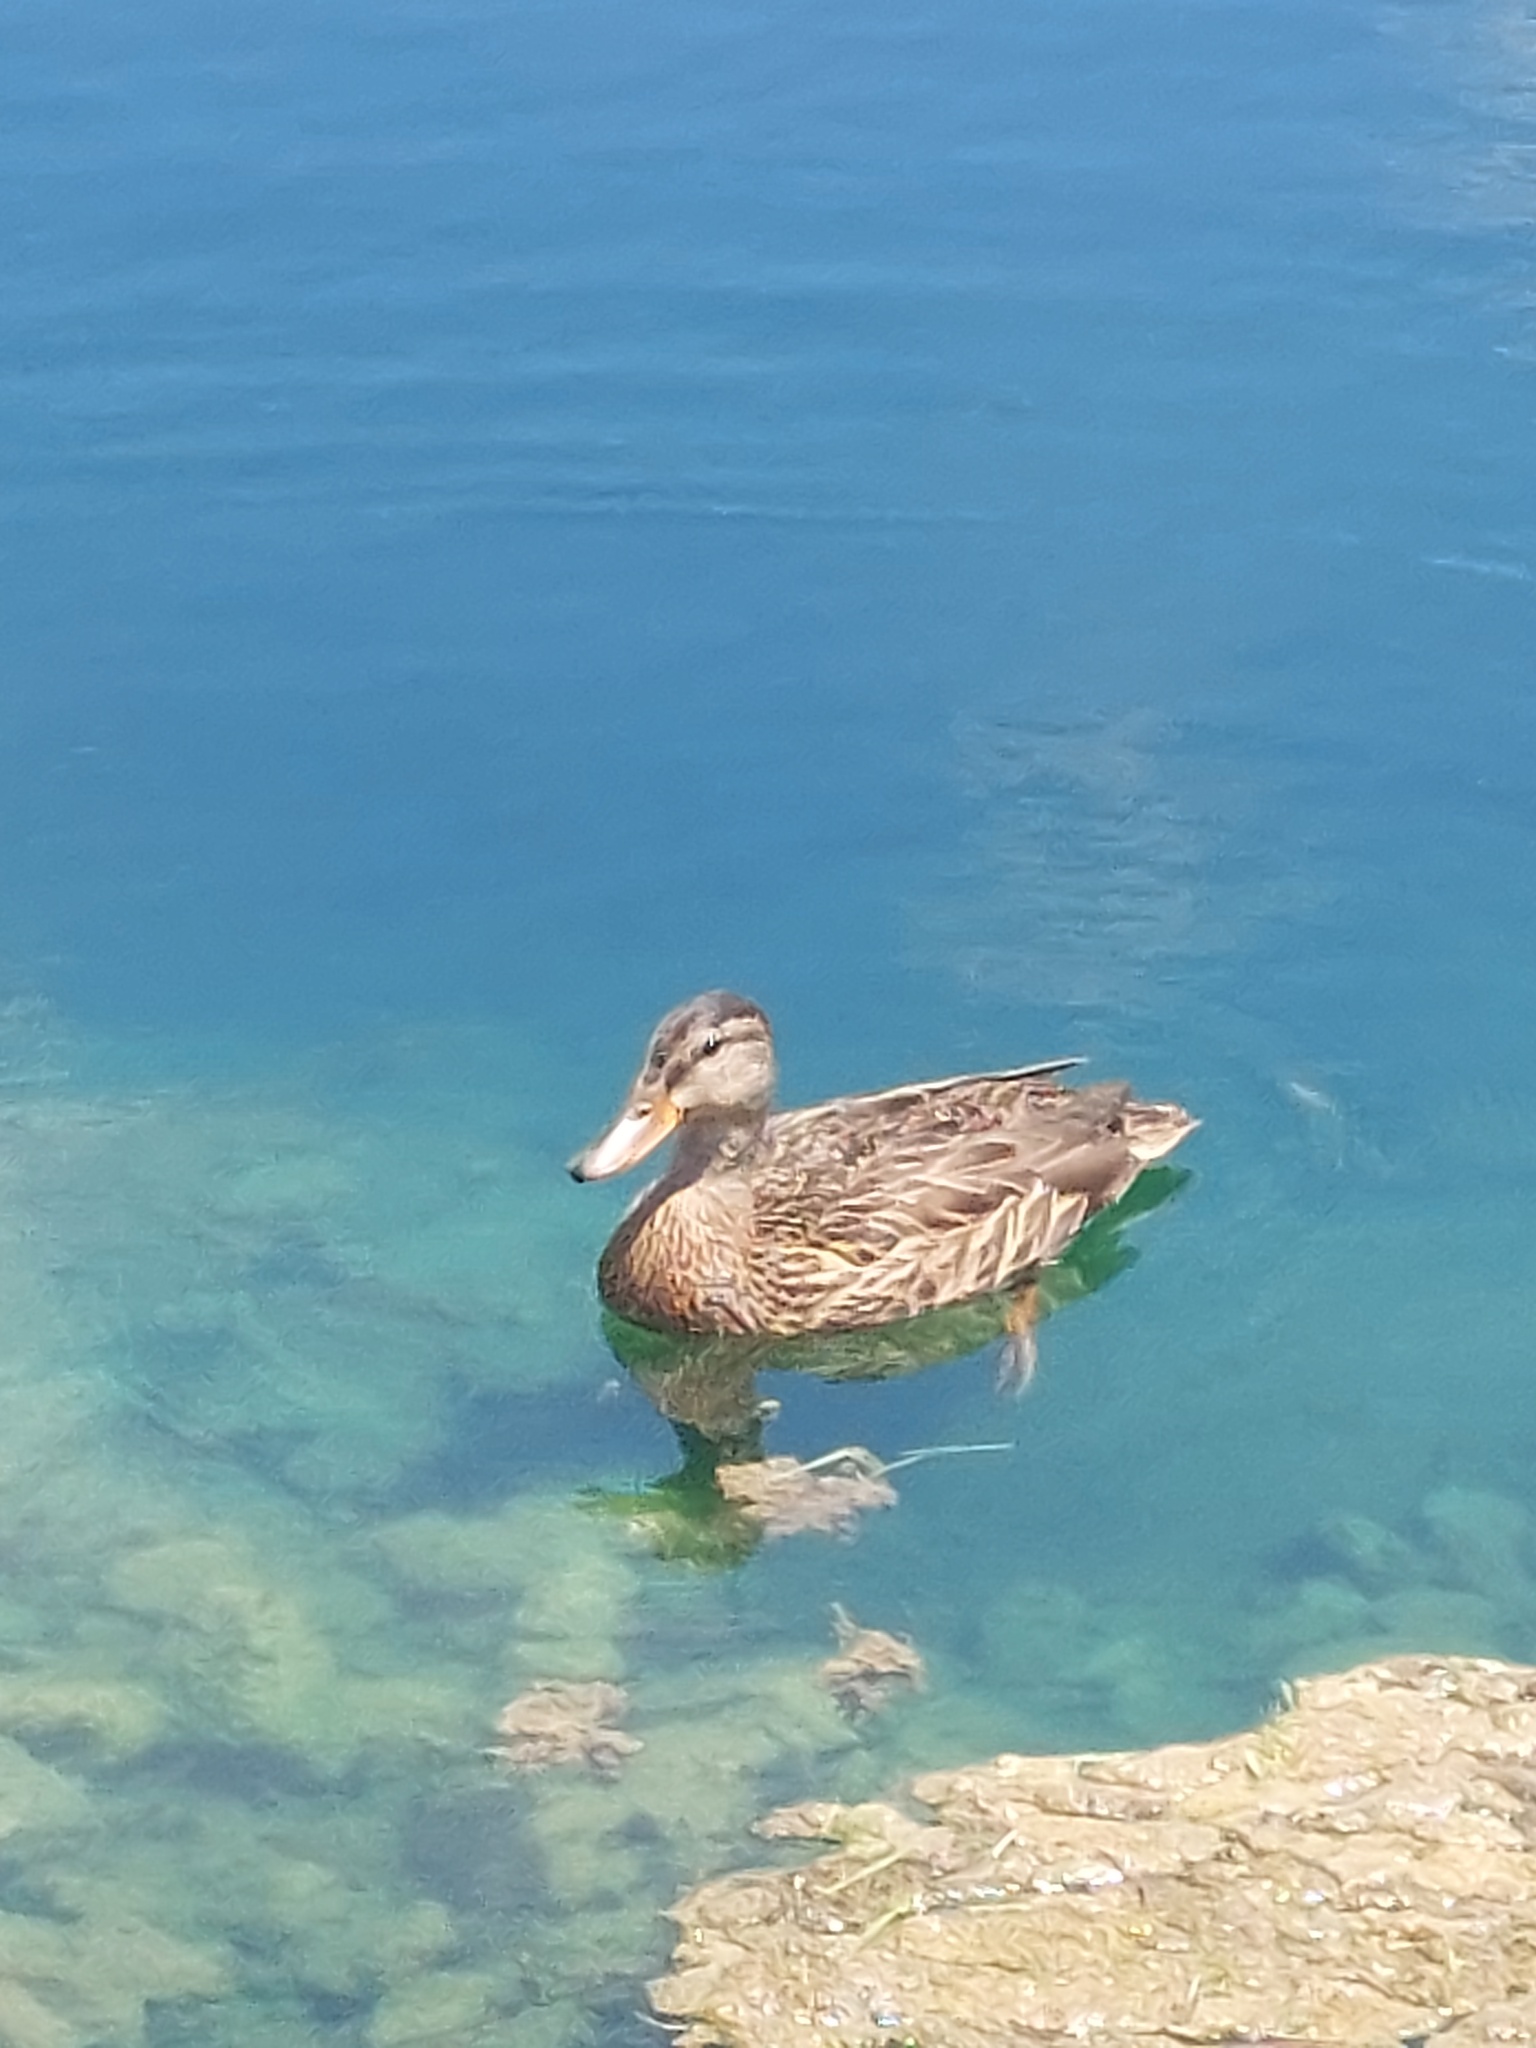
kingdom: Animalia
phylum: Chordata
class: Aves
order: Anseriformes
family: Anatidae
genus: Anas
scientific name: Anas platyrhynchos
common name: Mallard
